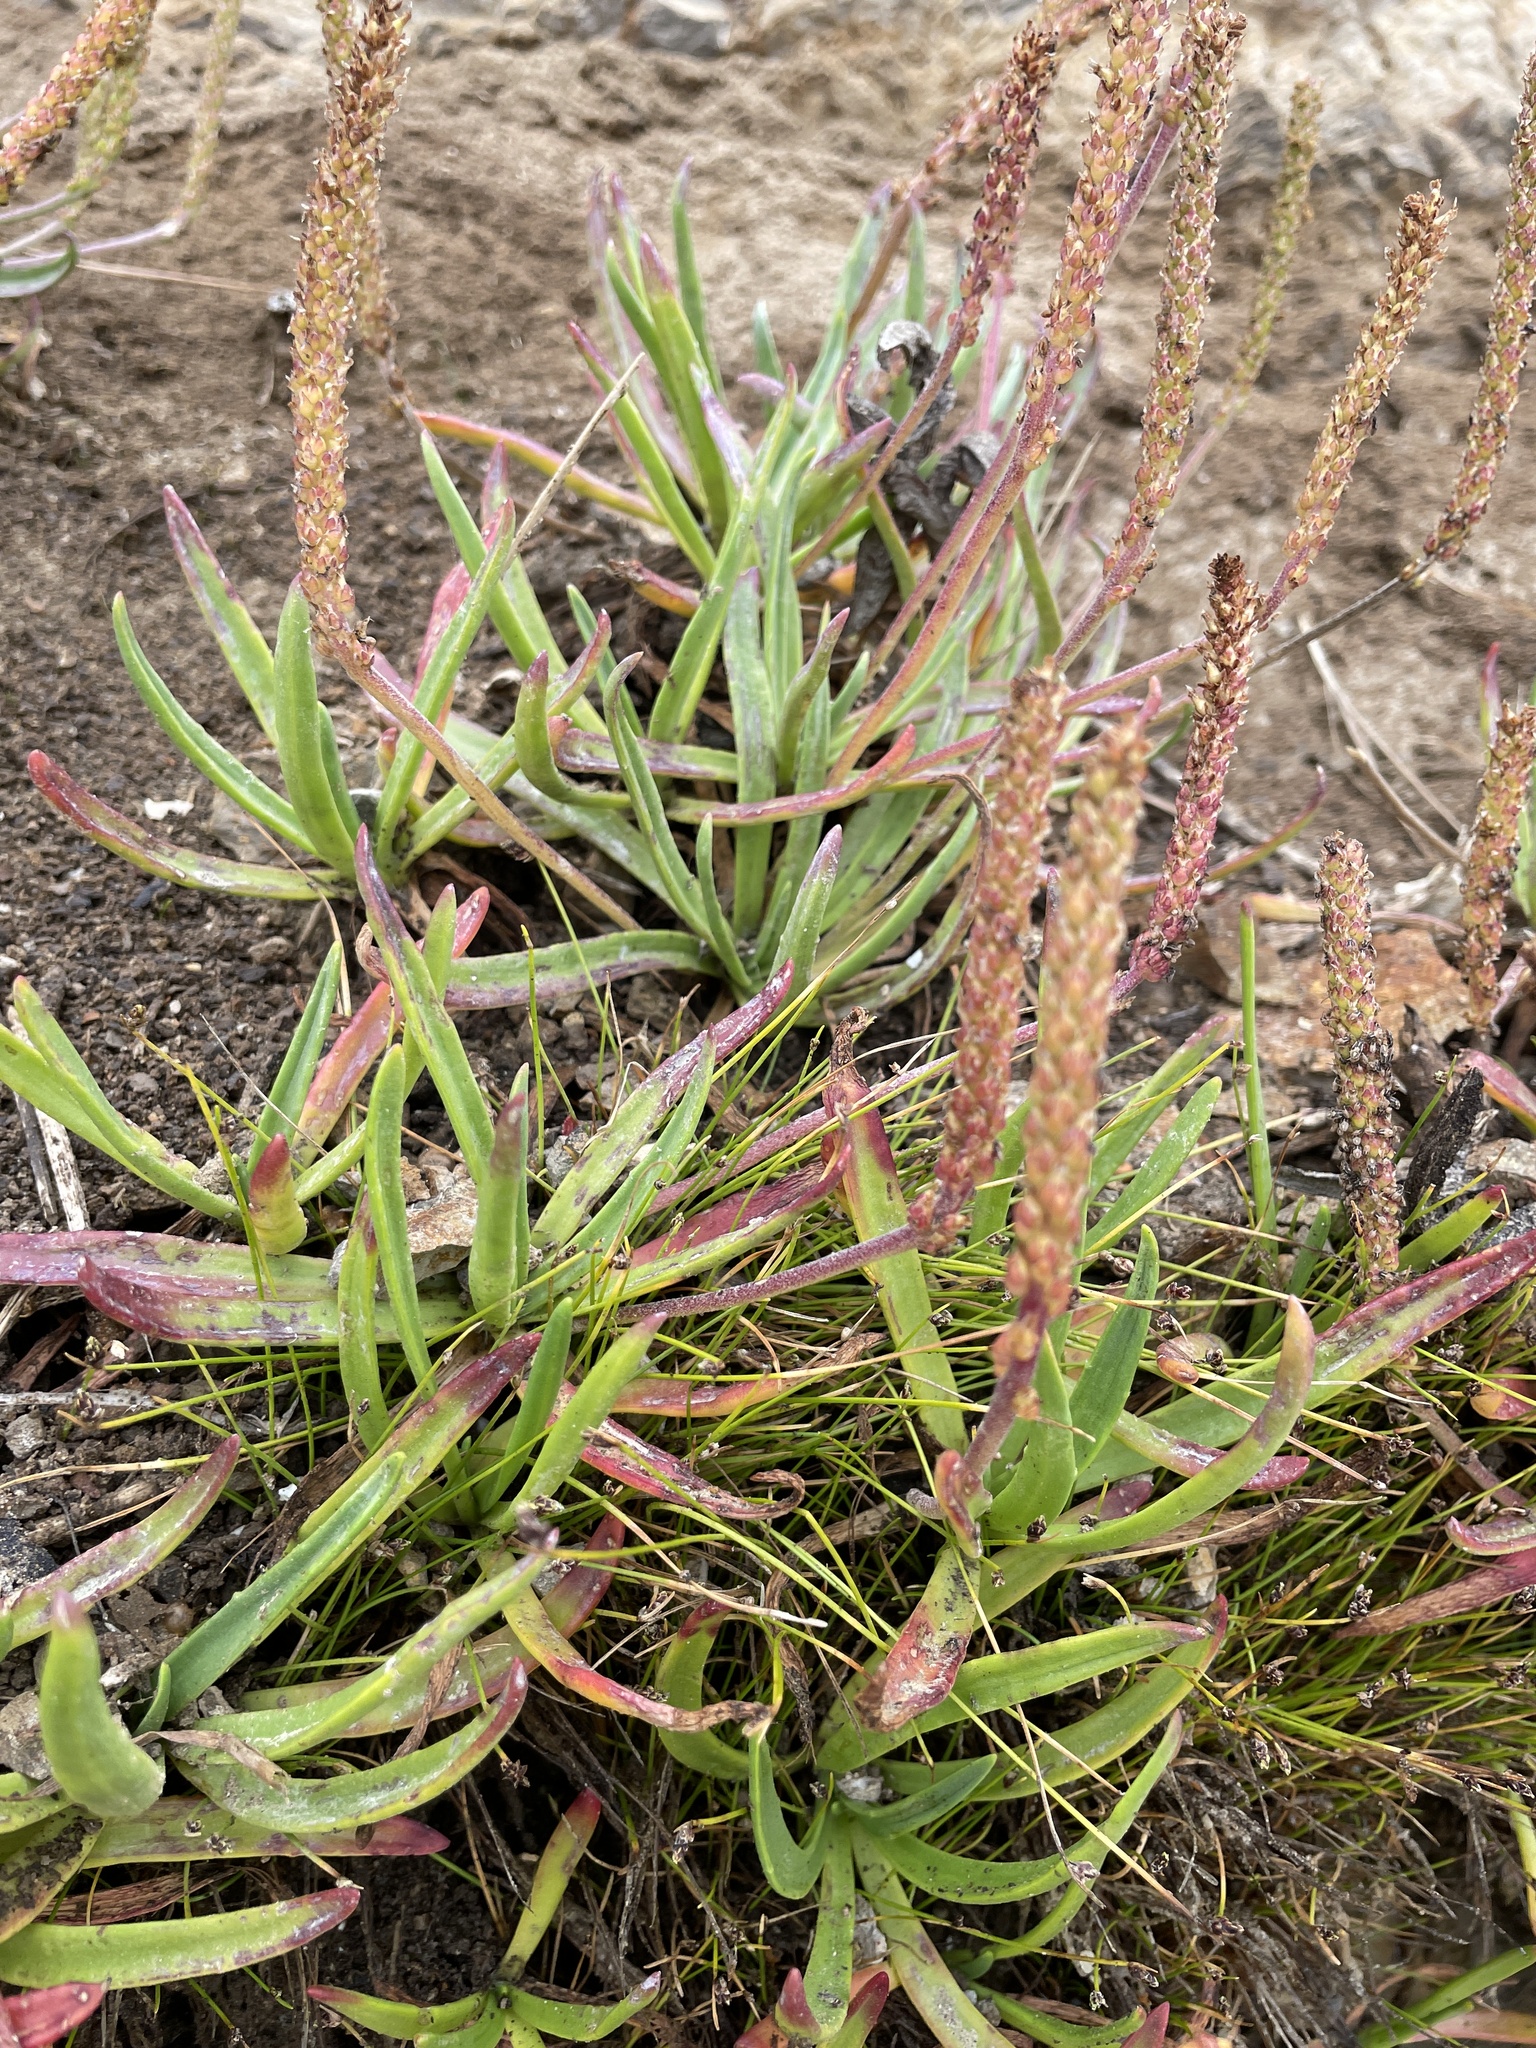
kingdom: Plantae
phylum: Tracheophyta
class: Magnoliopsida
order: Lamiales
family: Plantaginaceae
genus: Plantago
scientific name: Plantago maritima
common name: Sea plantain
